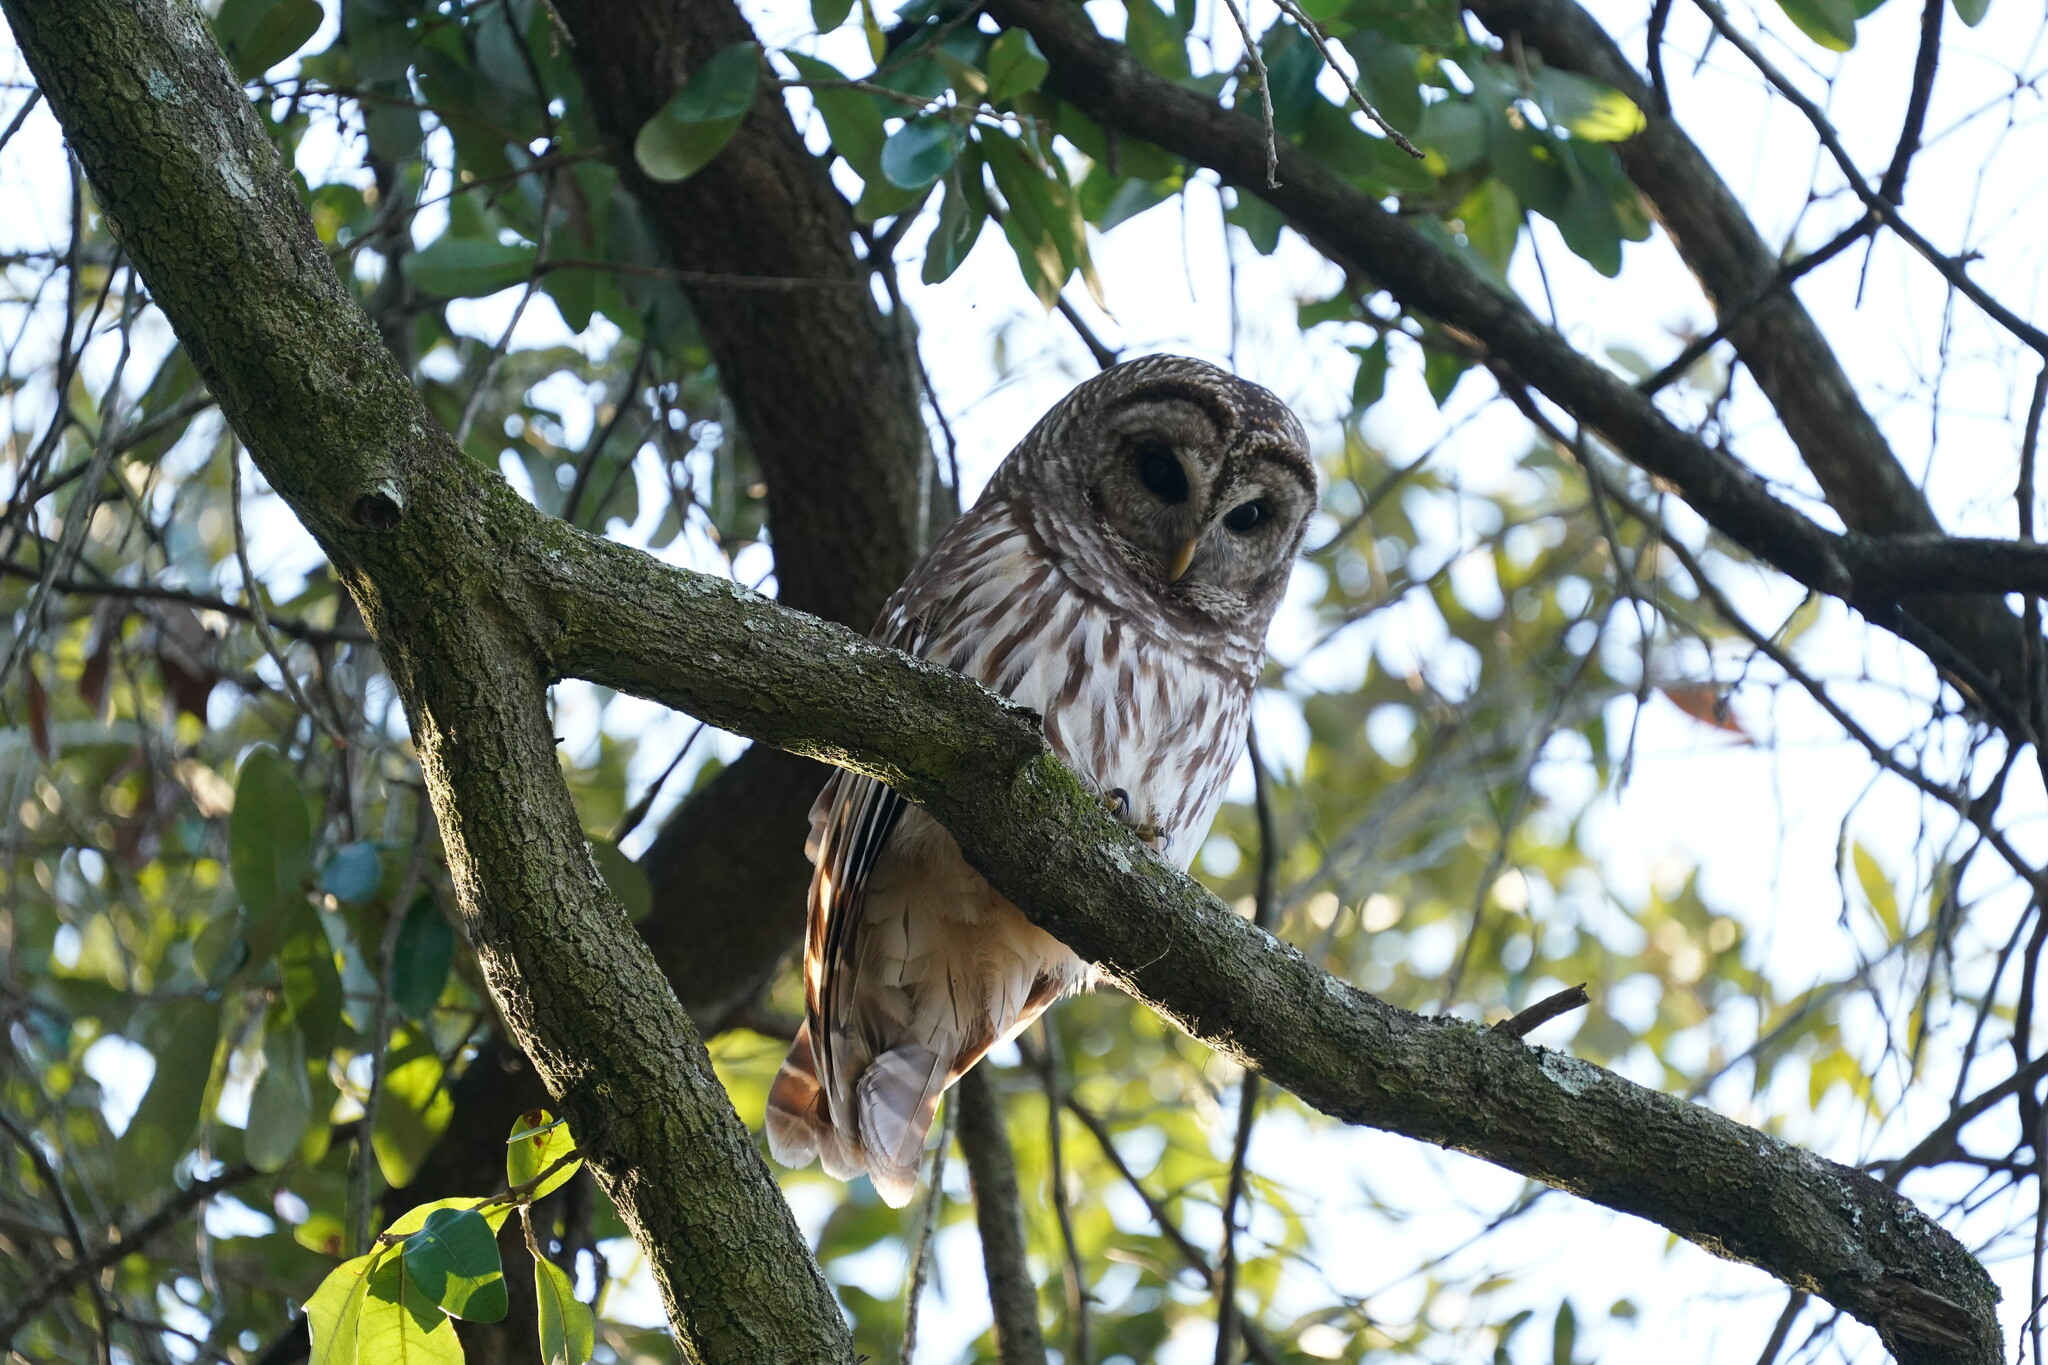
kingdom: Animalia
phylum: Chordata
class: Aves
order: Strigiformes
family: Strigidae
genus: Strix
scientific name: Strix varia
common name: Barred owl
